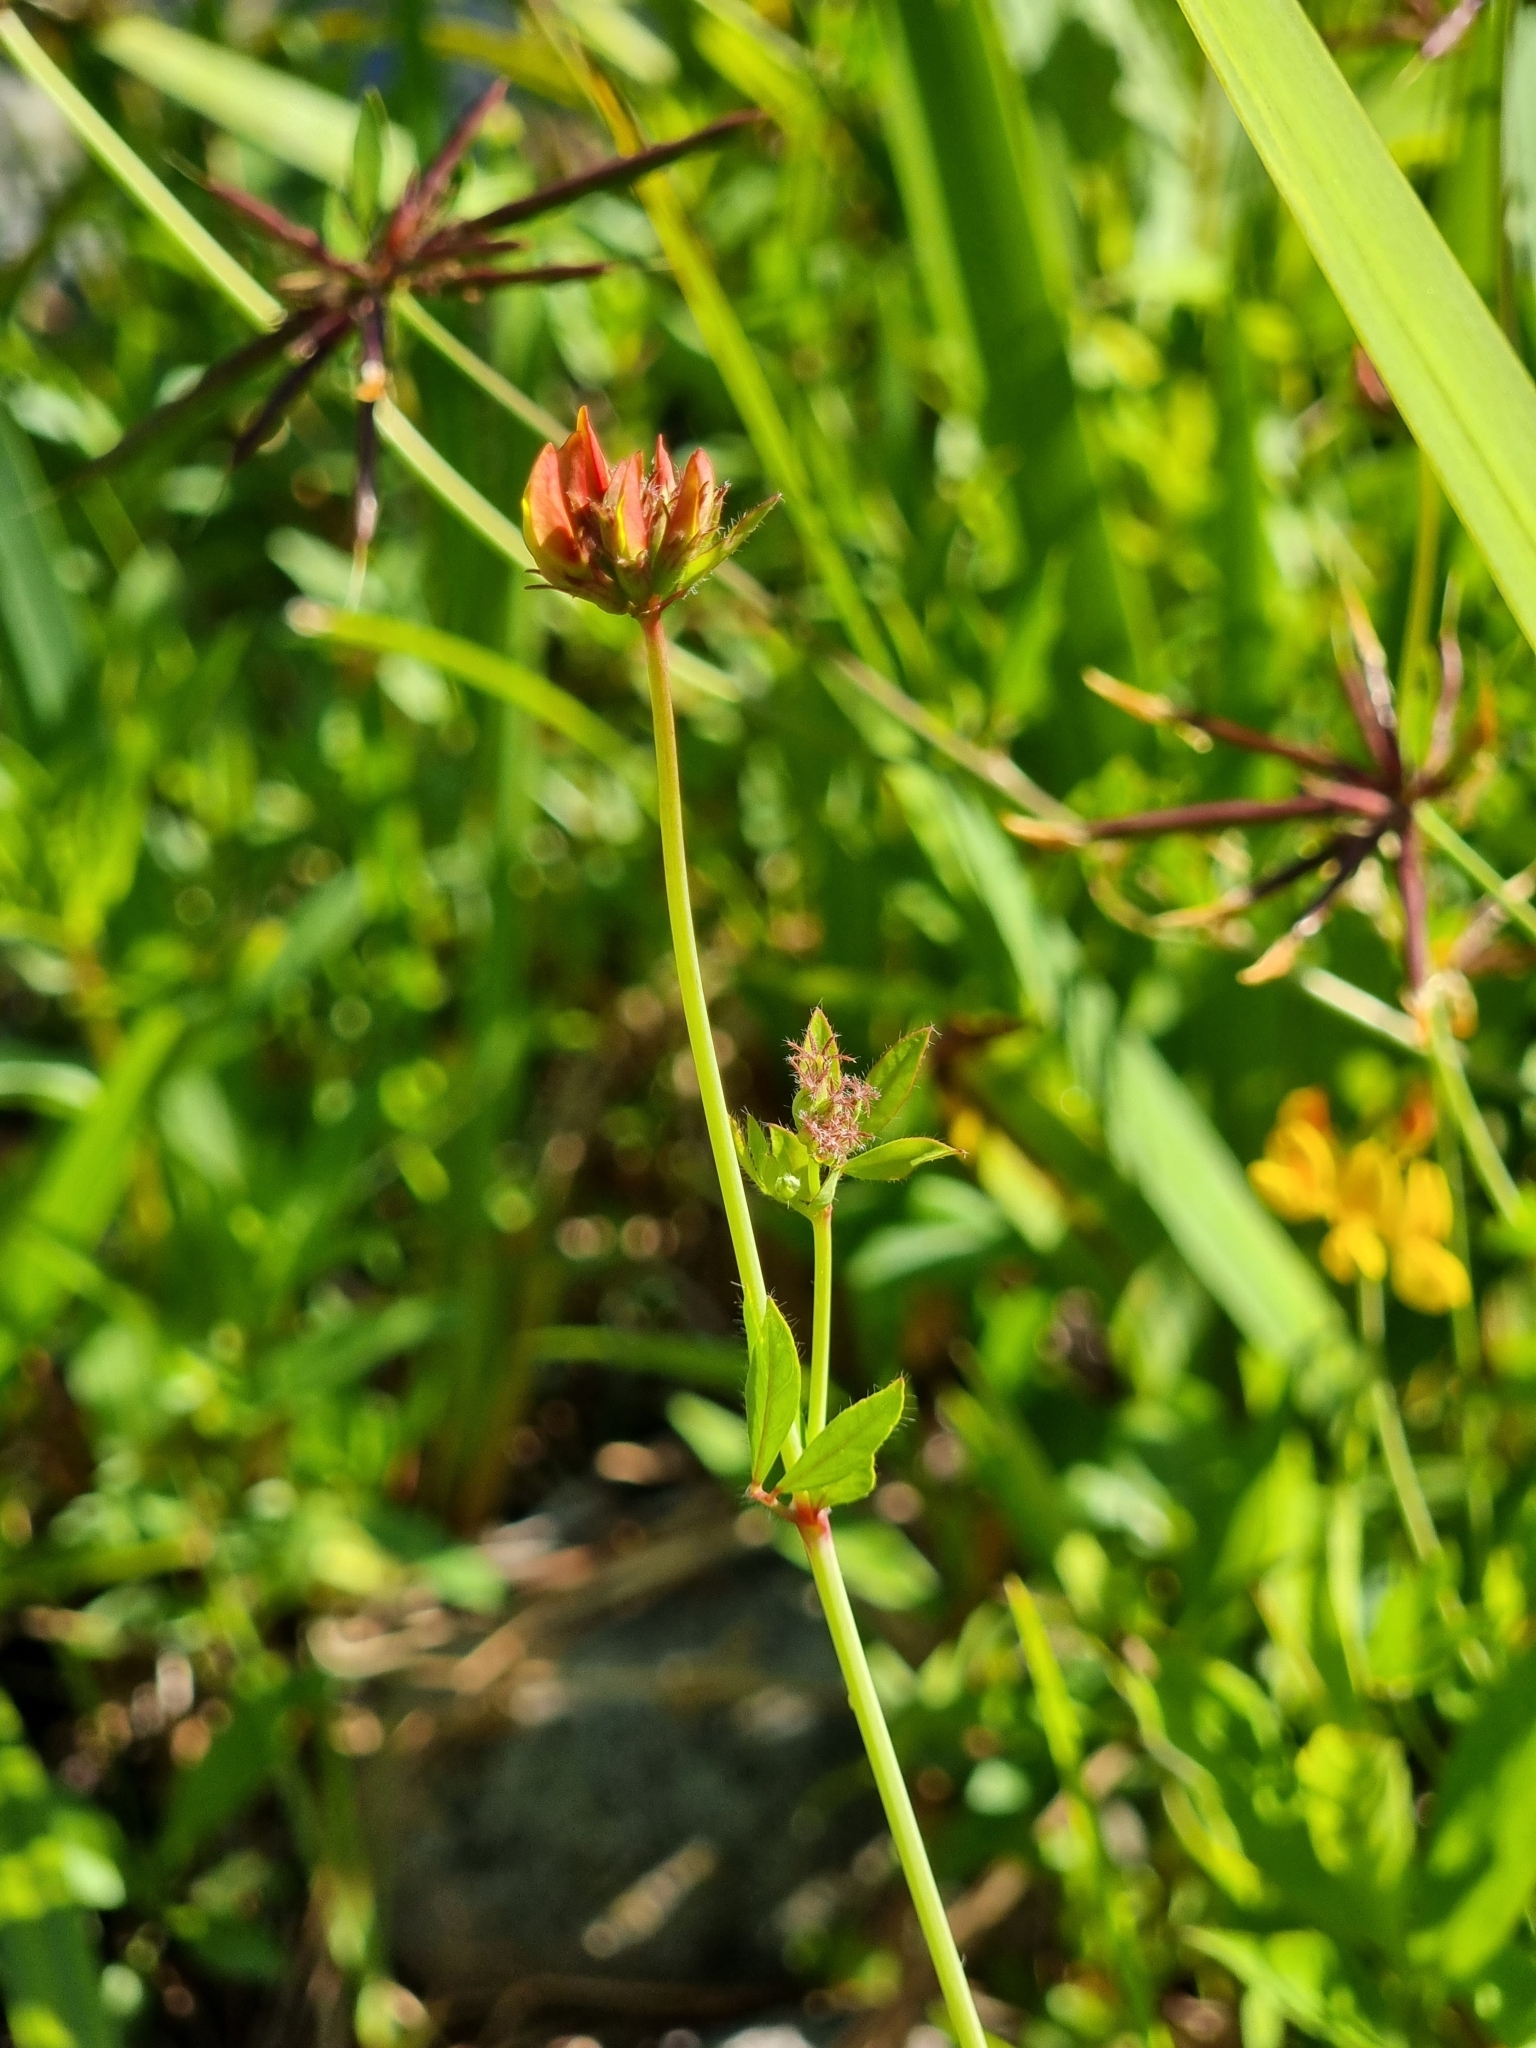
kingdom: Plantae
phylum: Tracheophyta
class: Magnoliopsida
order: Fabales
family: Fabaceae
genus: Lotus
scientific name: Lotus pedunculatus
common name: Greater birdsfoot-trefoil
